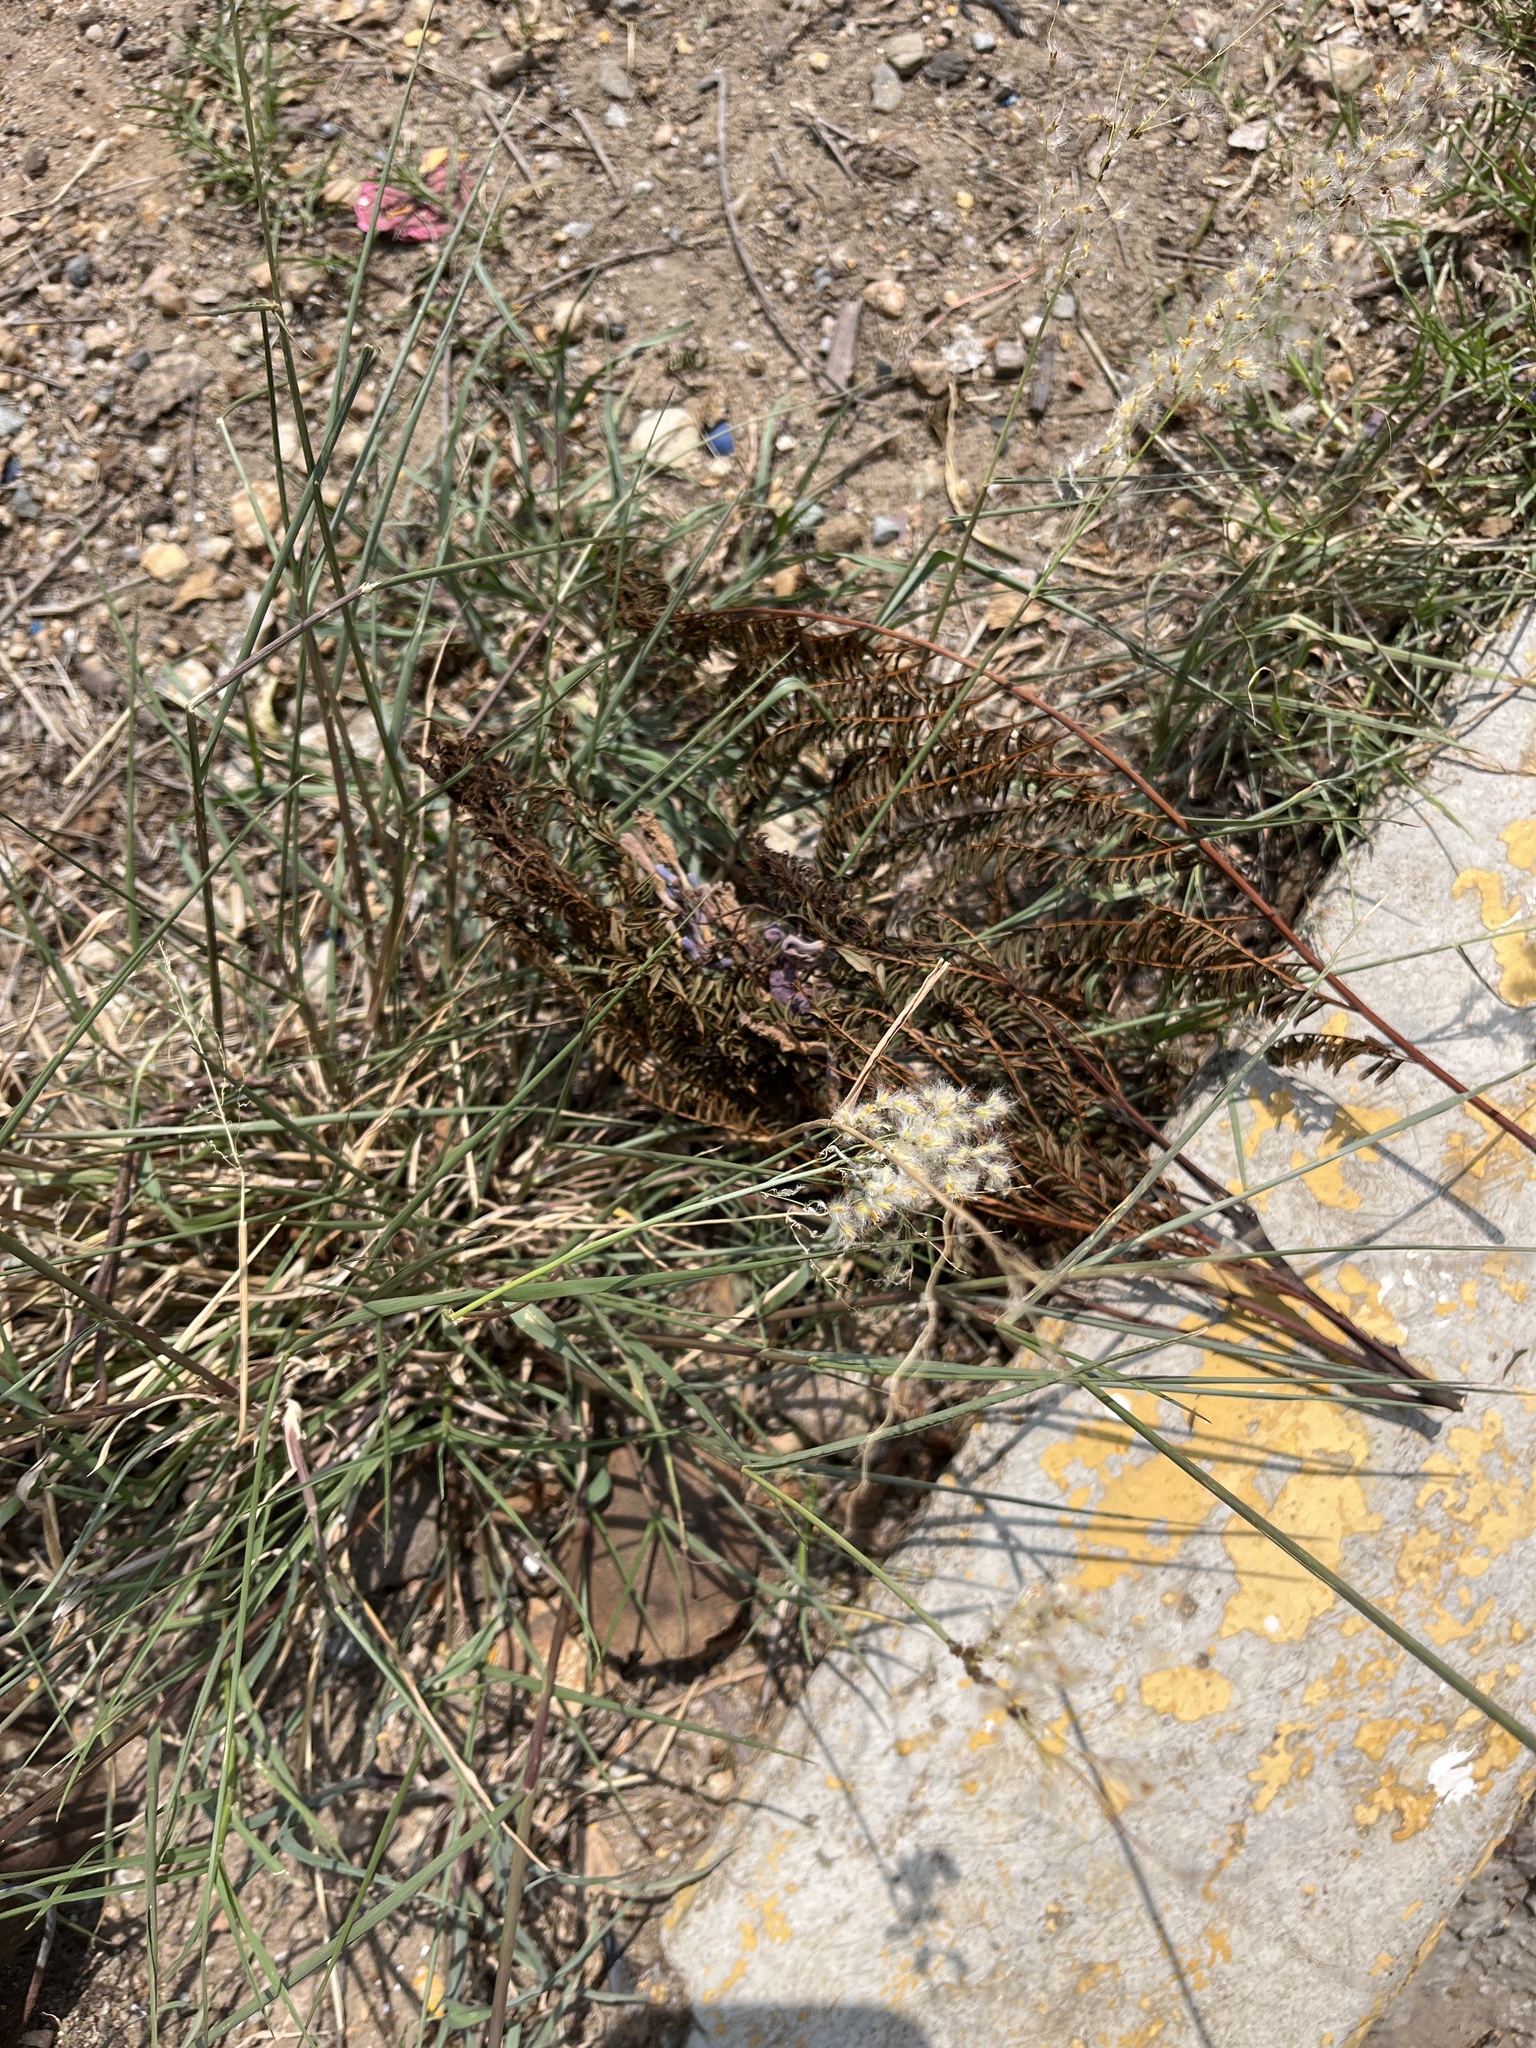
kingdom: Plantae
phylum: Tracheophyta
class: Liliopsida
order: Poales
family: Poaceae
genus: Melinis
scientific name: Melinis repens
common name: Rose natal grass
